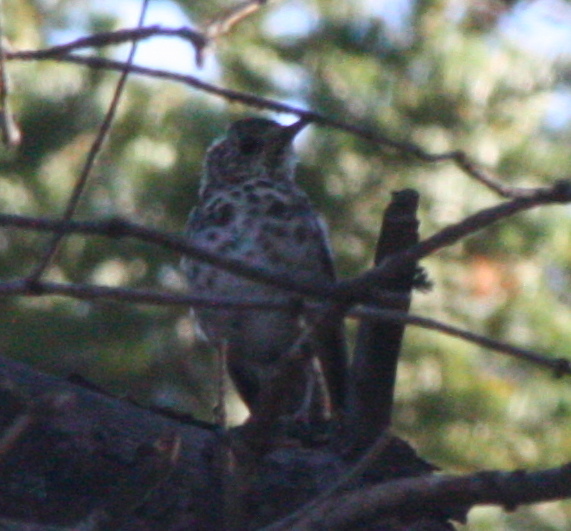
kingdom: Animalia
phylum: Chordata
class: Aves
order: Passeriformes
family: Turdidae
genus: Catharus
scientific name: Catharus guttatus
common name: Hermit thrush
